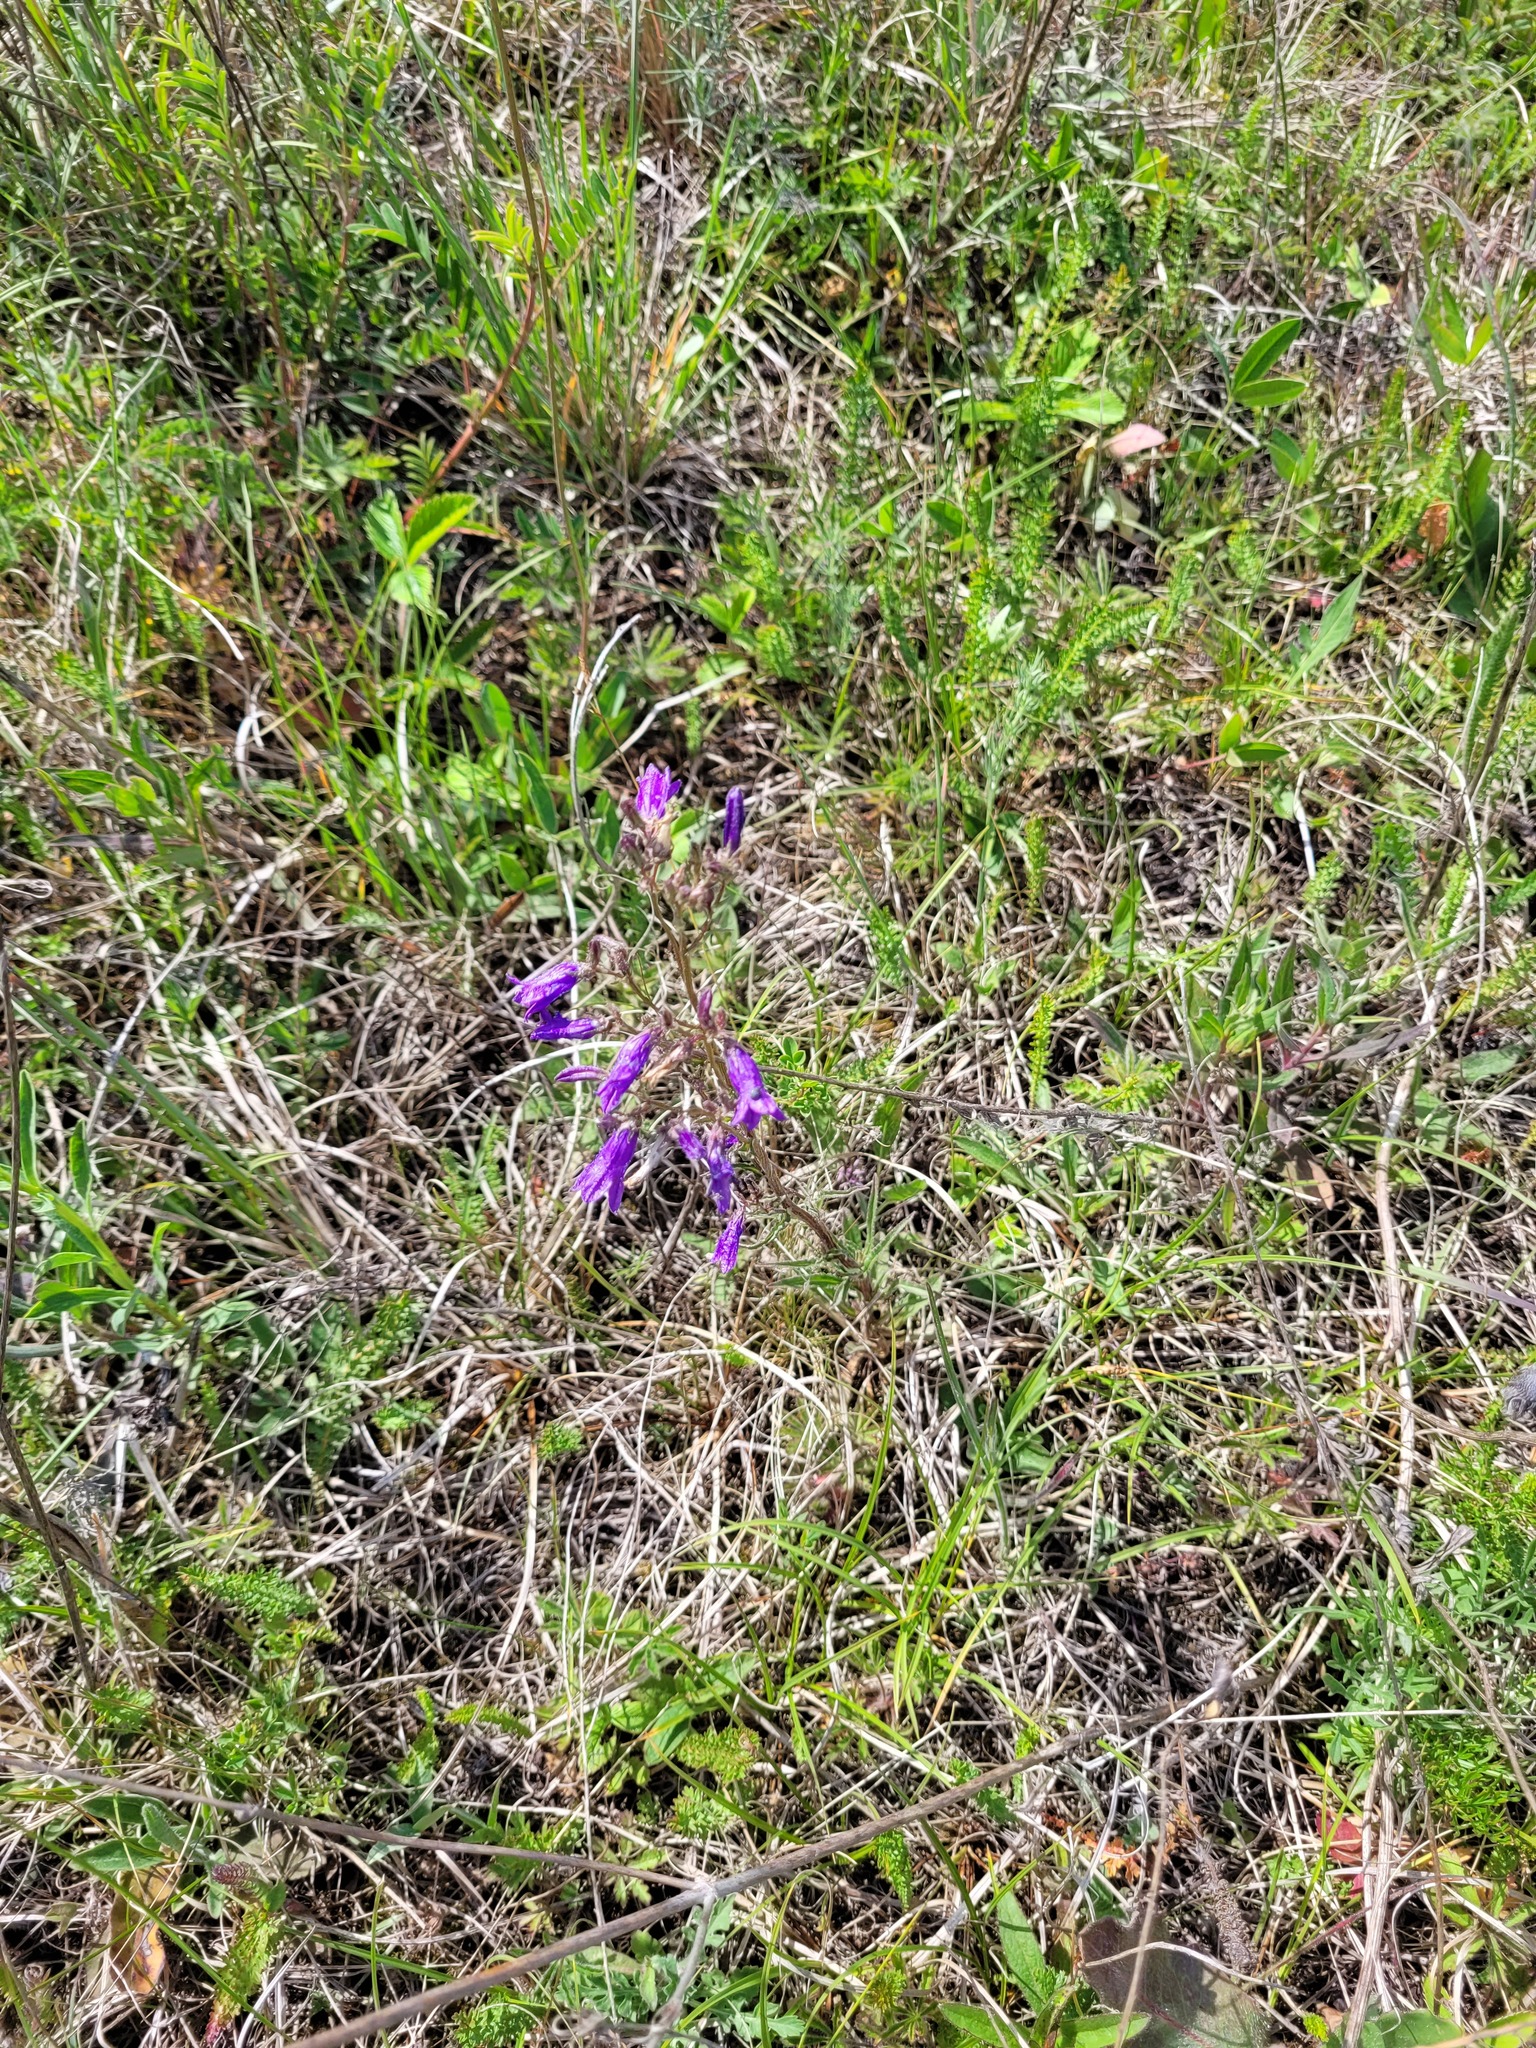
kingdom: Plantae
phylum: Tracheophyta
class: Magnoliopsida
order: Asterales
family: Campanulaceae
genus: Campanula
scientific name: Campanula sibirica
